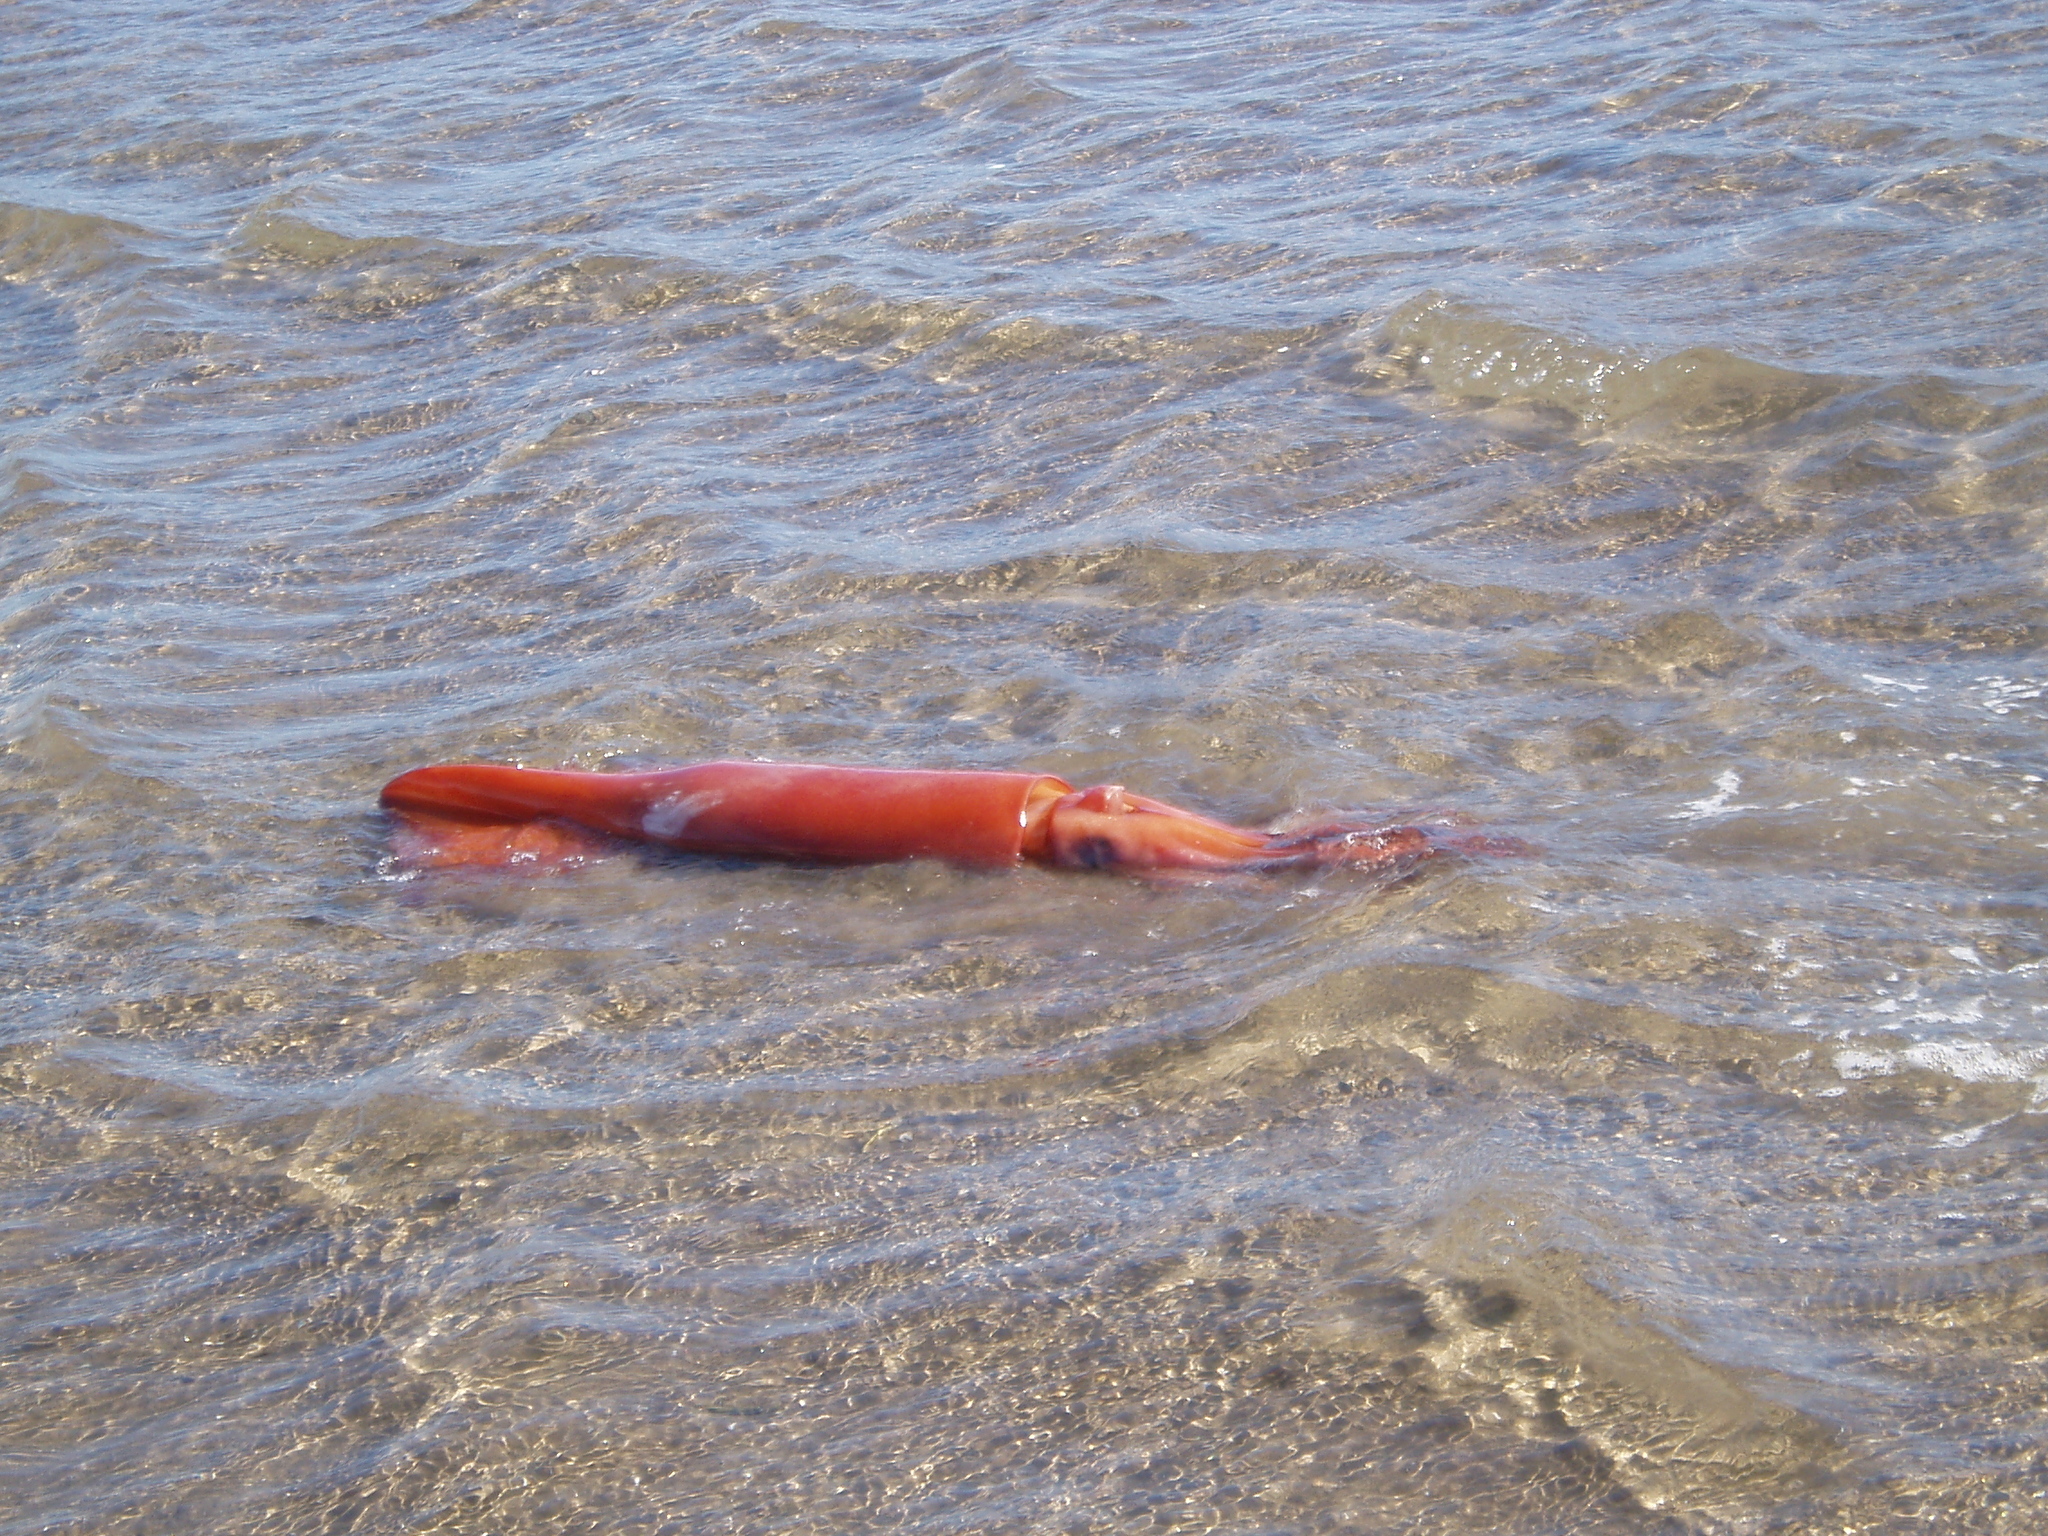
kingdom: Animalia
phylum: Mollusca
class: Cephalopoda
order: Oegopsida
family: Ommastrephidae
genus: Dosidicus
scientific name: Dosidicus gigas
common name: Humboldt squid
